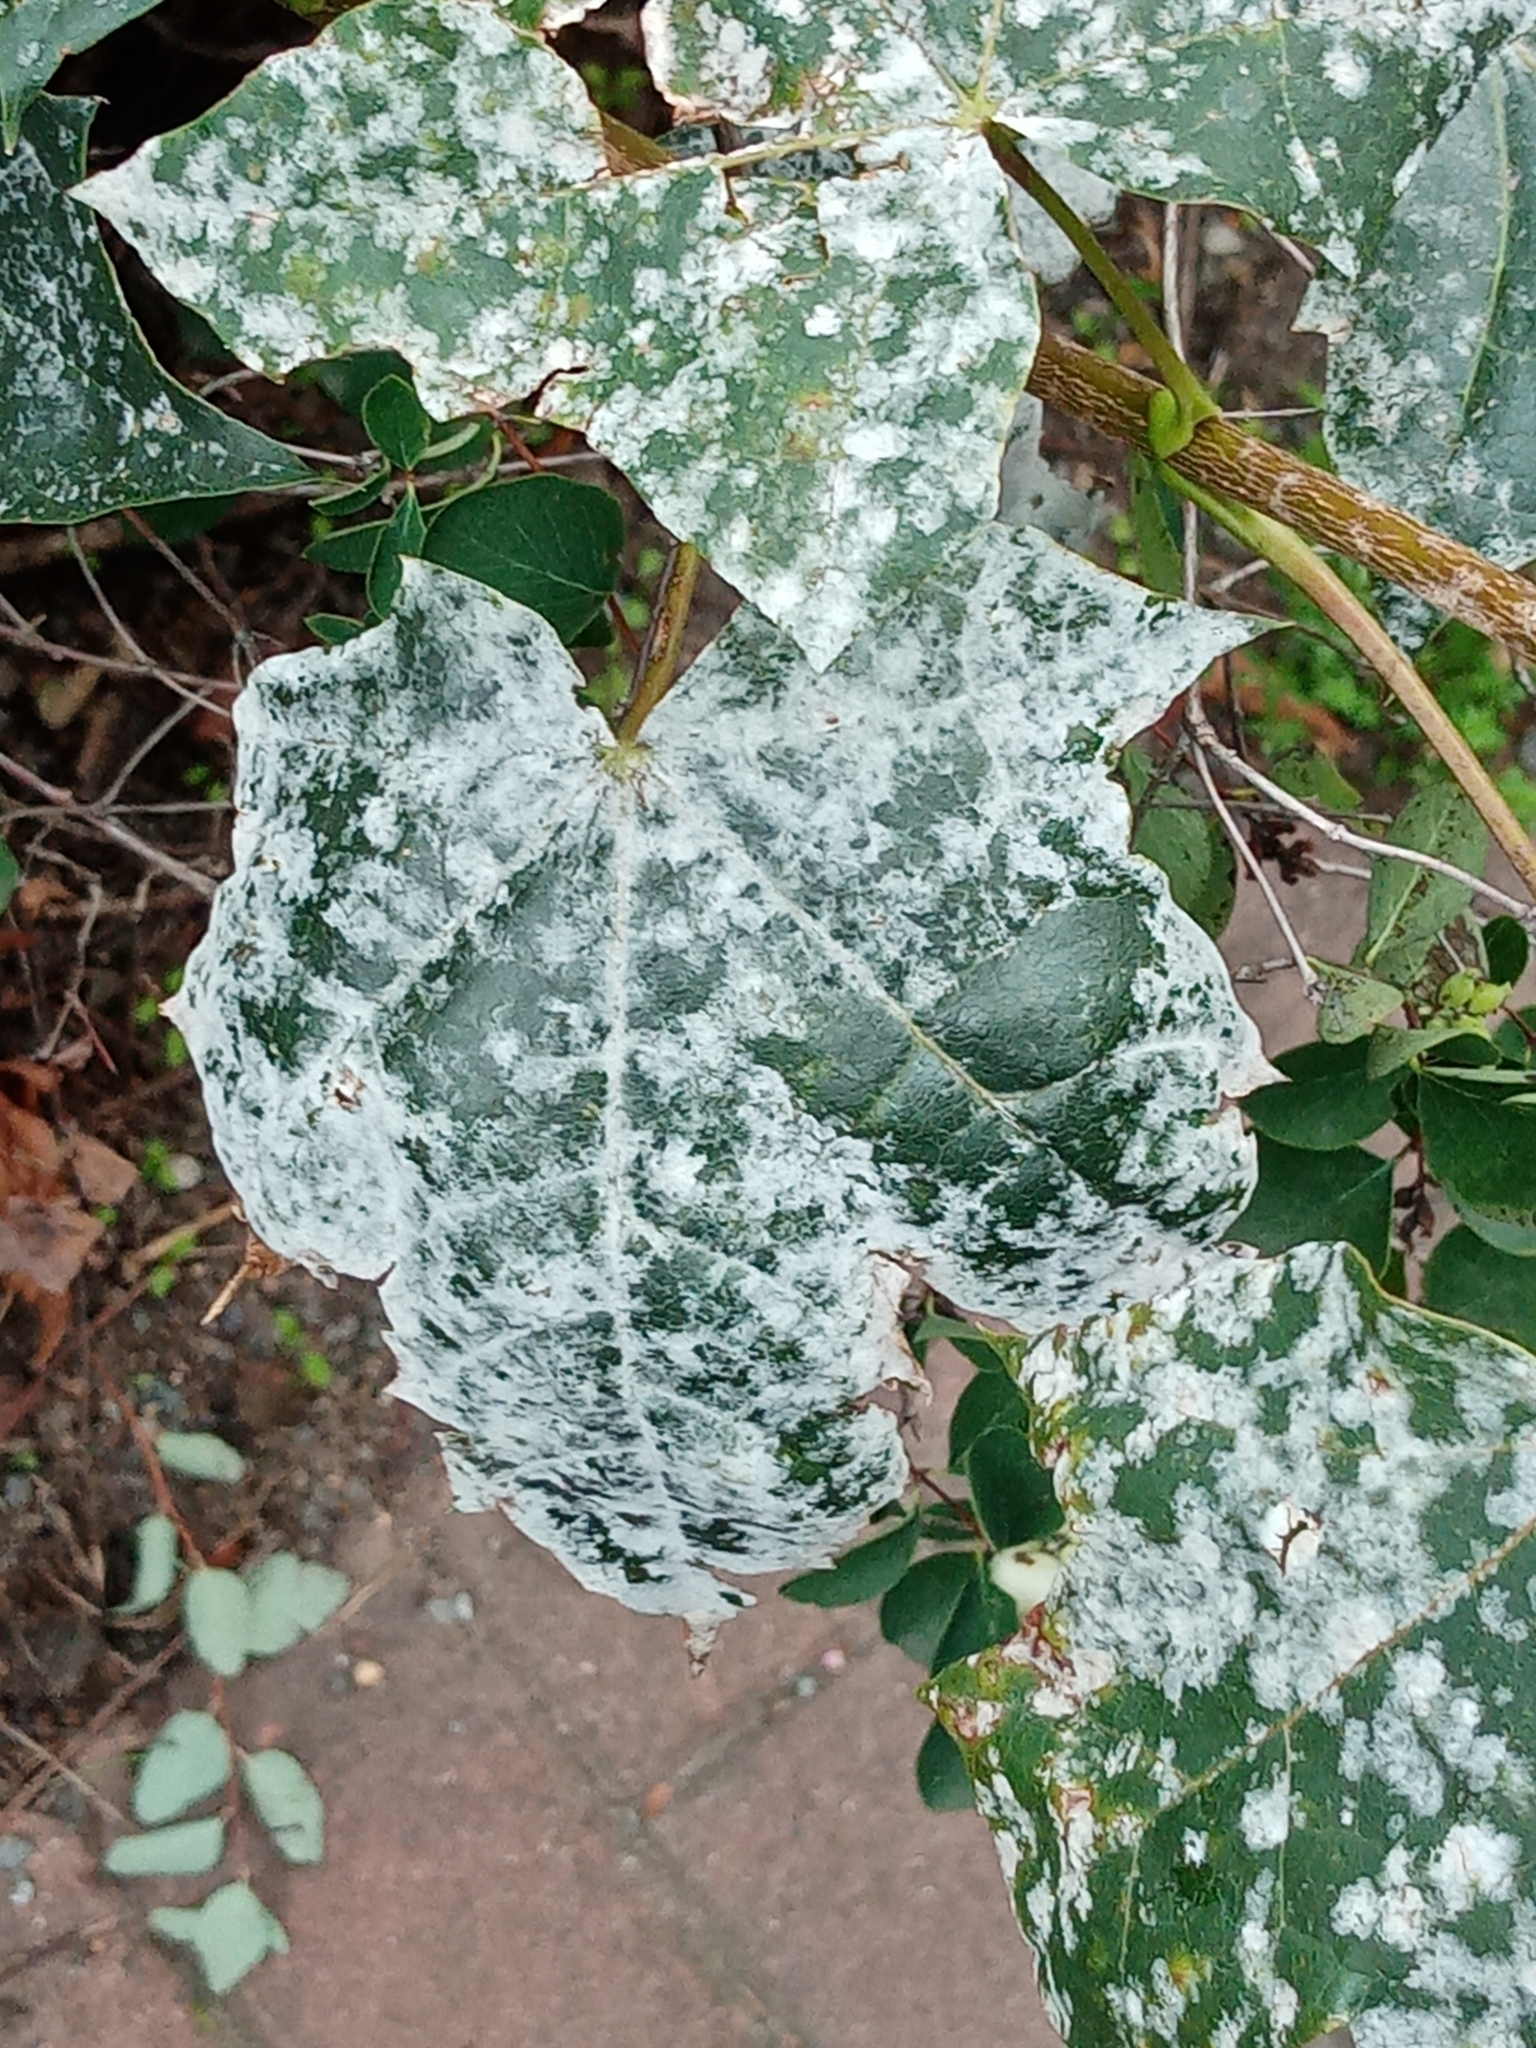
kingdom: Fungi
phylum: Ascomycota
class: Leotiomycetes
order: Helotiales
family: Erysiphaceae
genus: Sawadaea
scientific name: Sawadaea tulasnei
